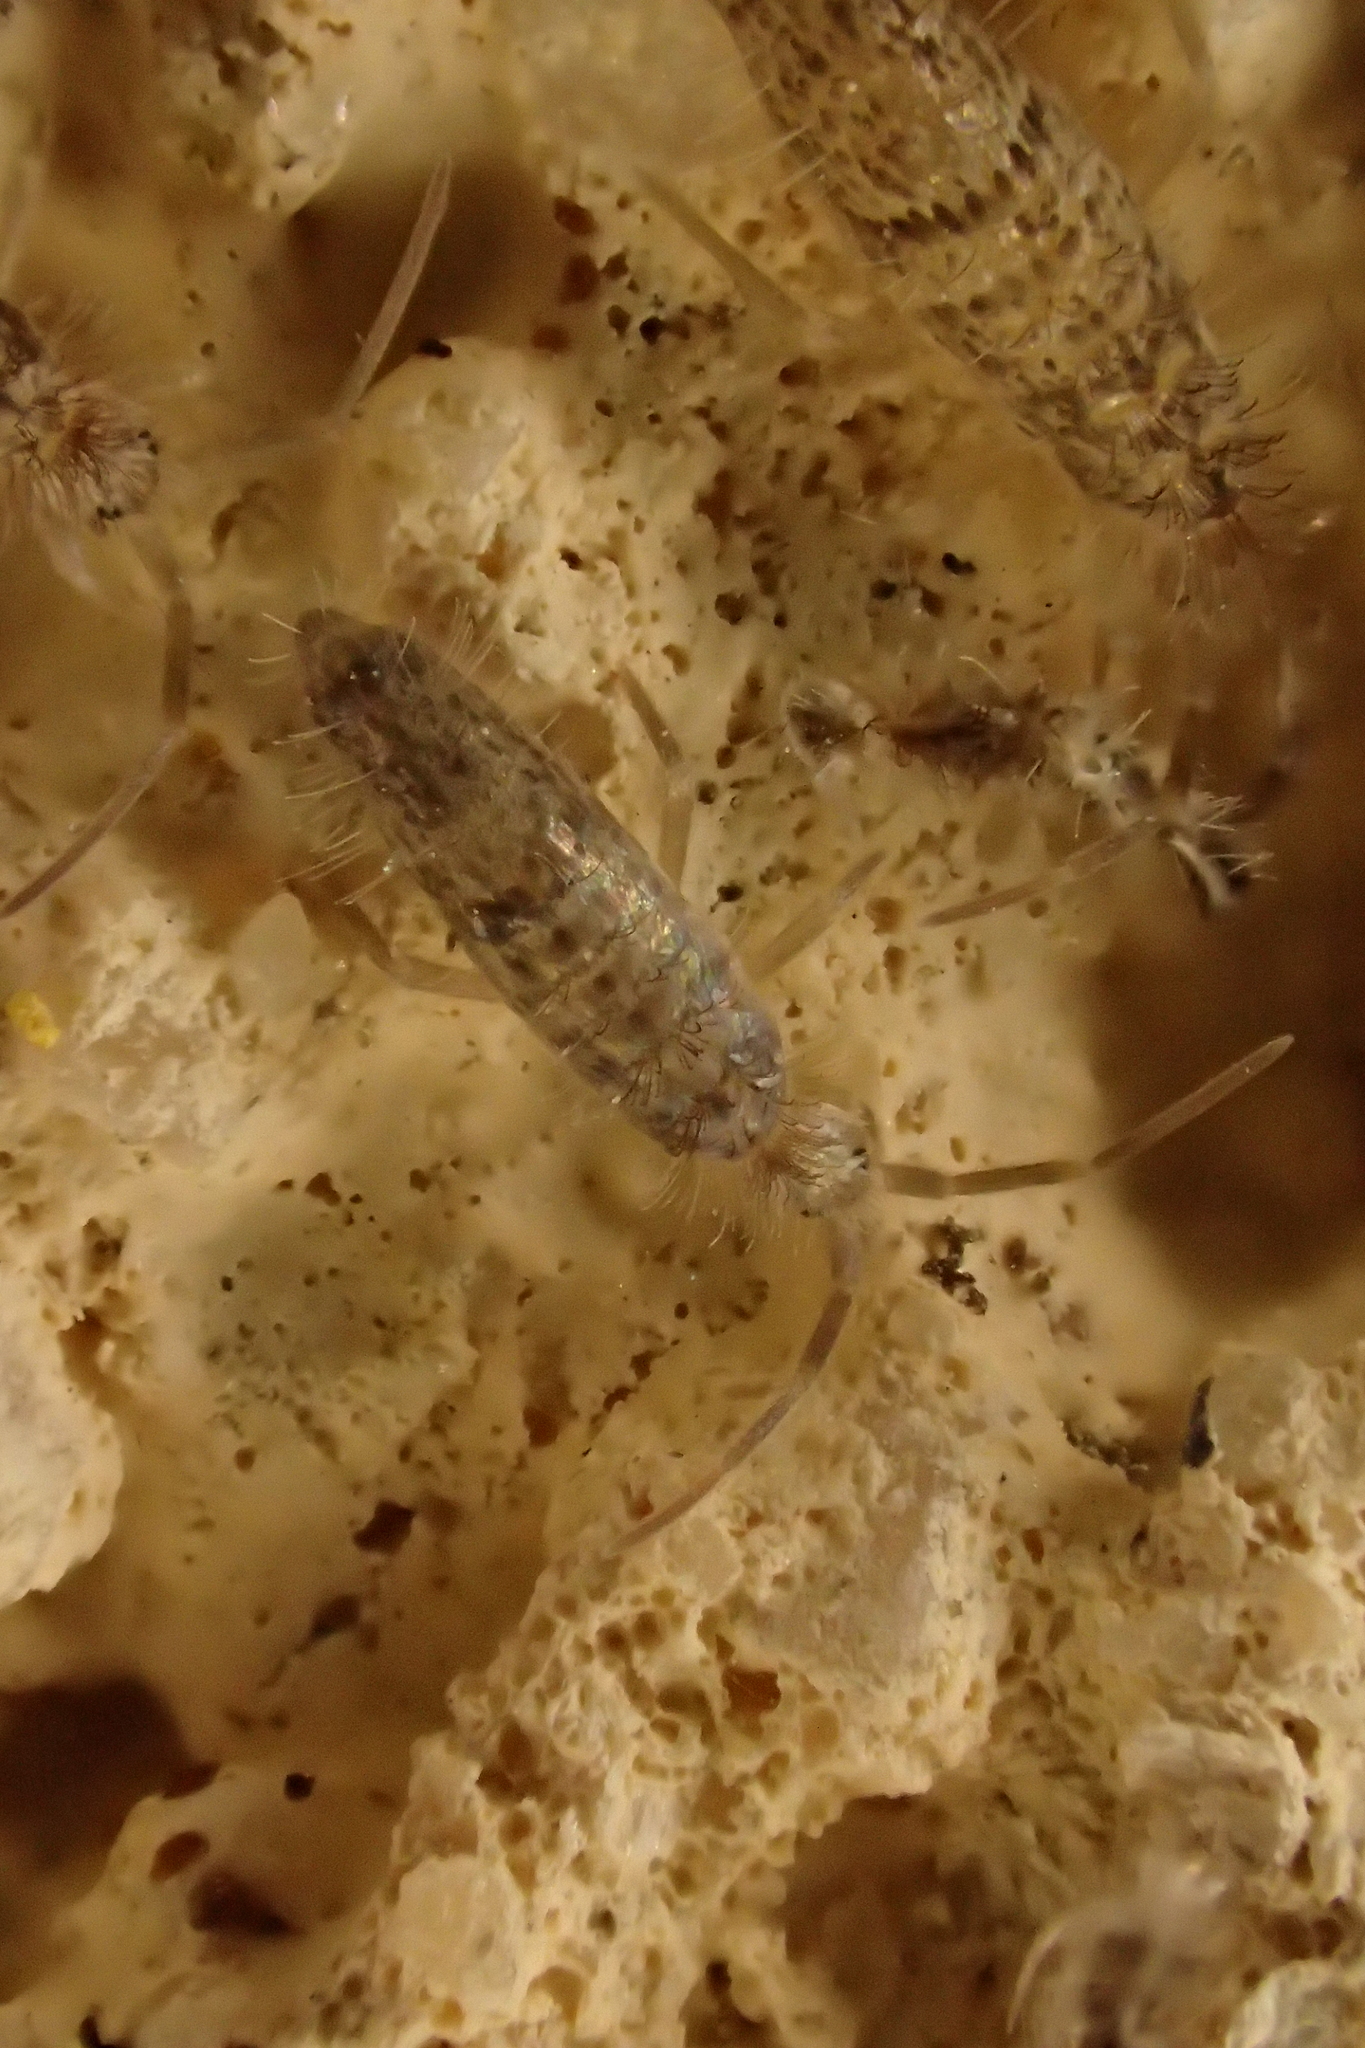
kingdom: Animalia
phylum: Arthropoda
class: Collembola
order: Entomobryomorpha
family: Entomobryidae
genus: Seira
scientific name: Seira musarum
